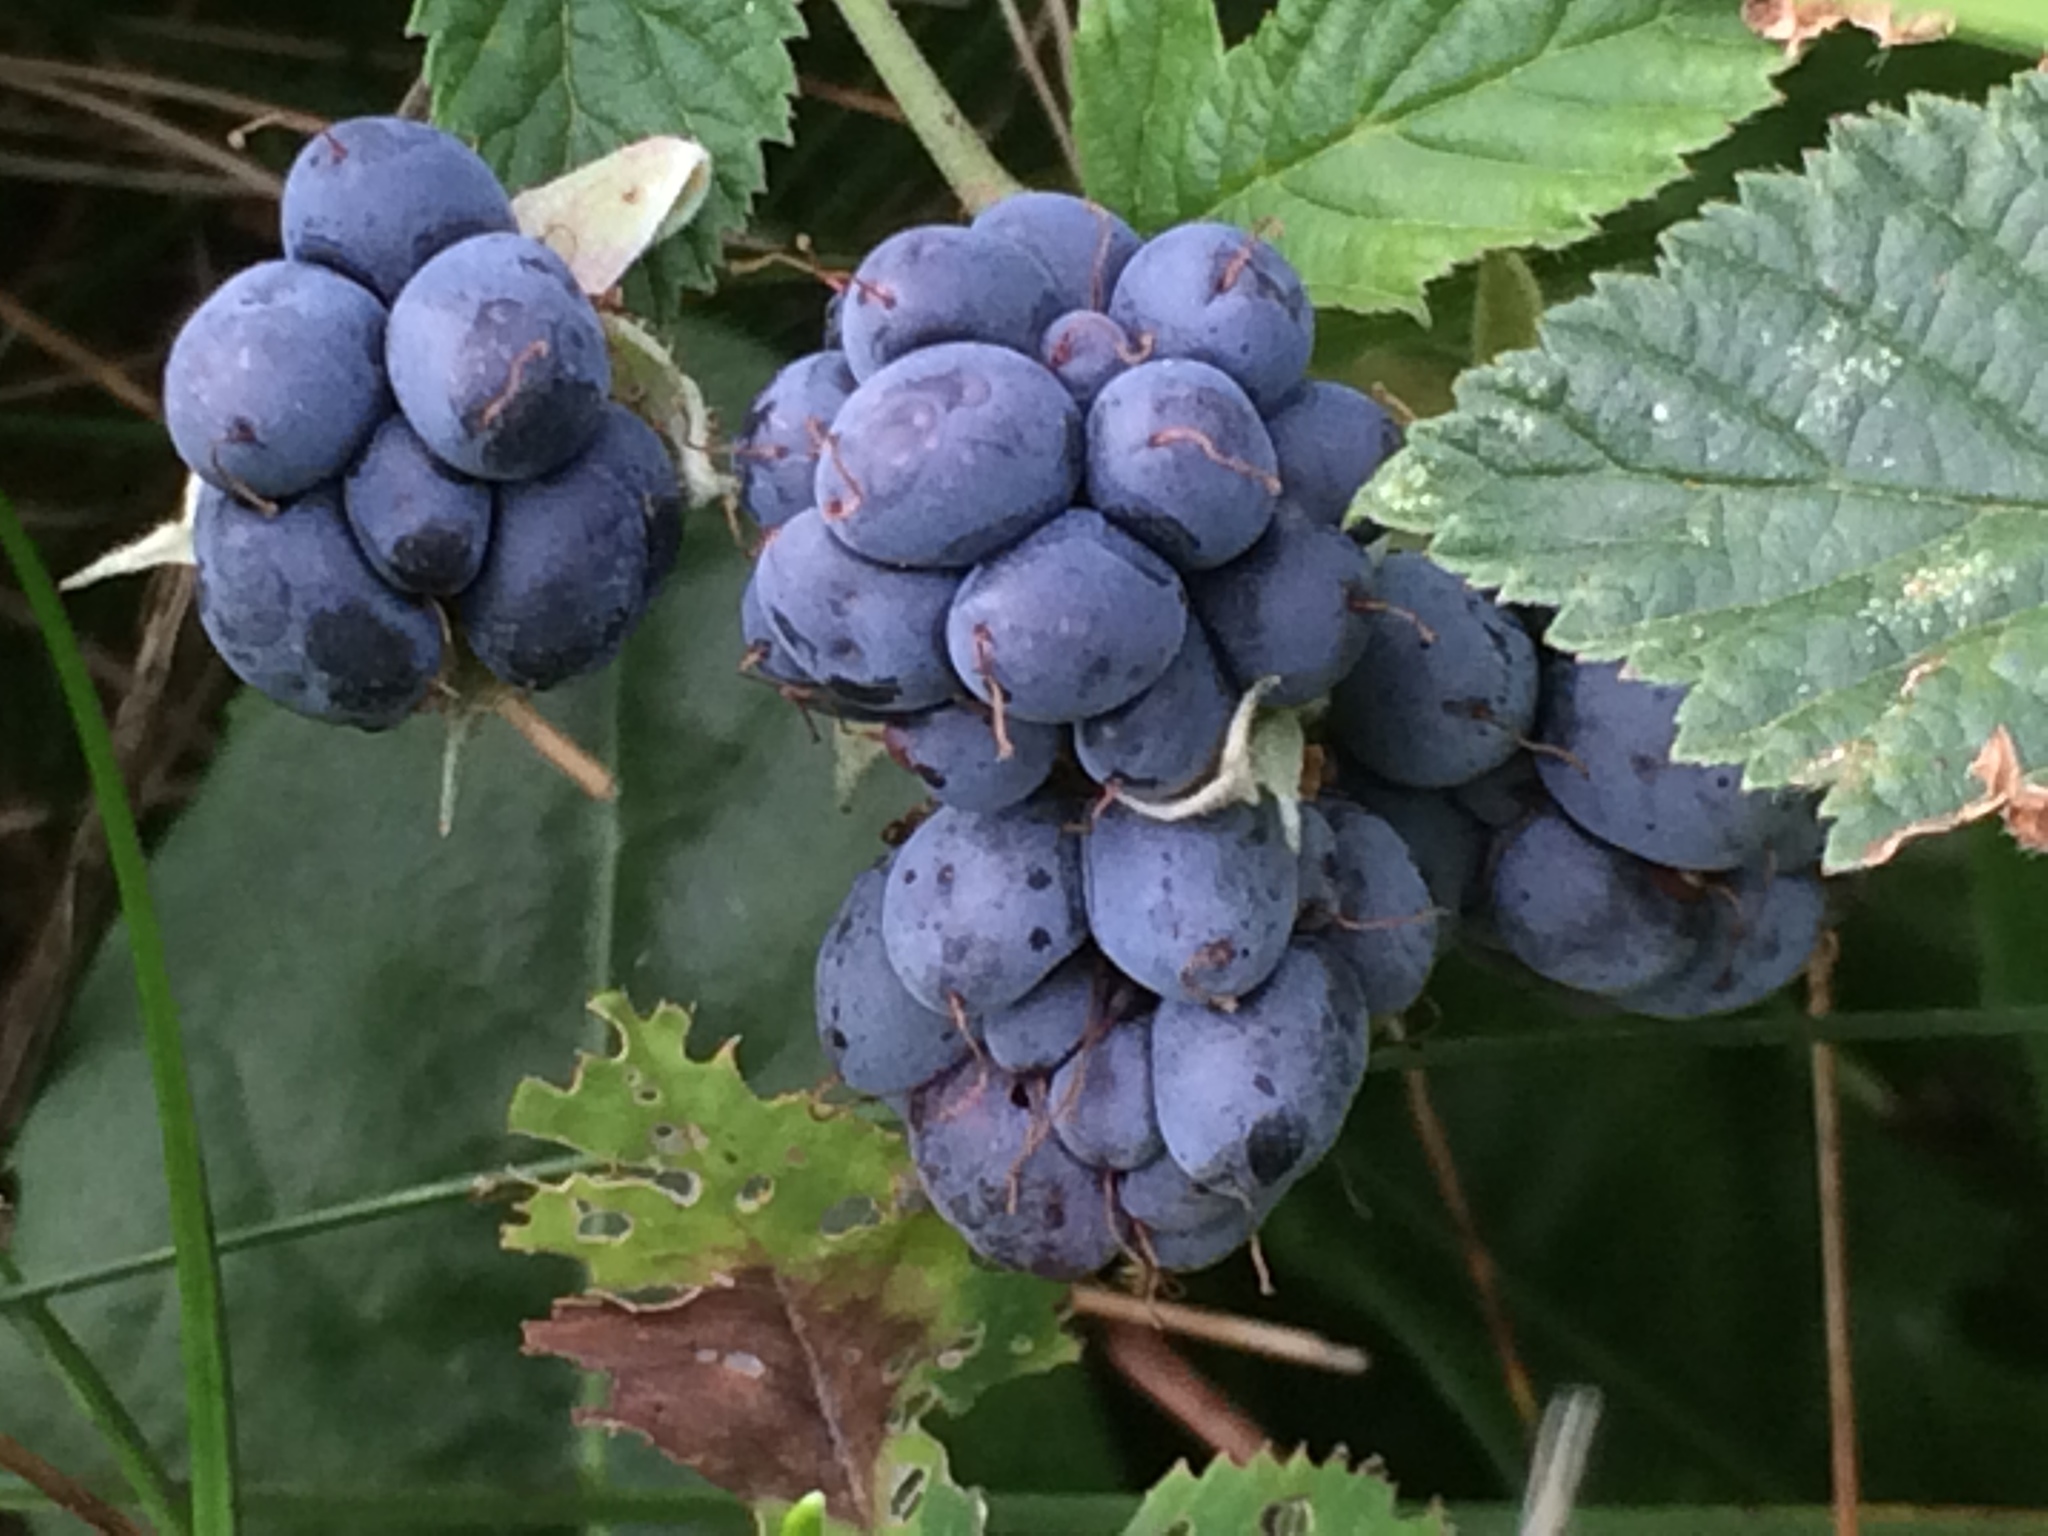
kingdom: Plantae
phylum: Tracheophyta
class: Magnoliopsida
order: Rosales
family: Rosaceae
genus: Rubus
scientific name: Rubus caesius
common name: Dewberry
